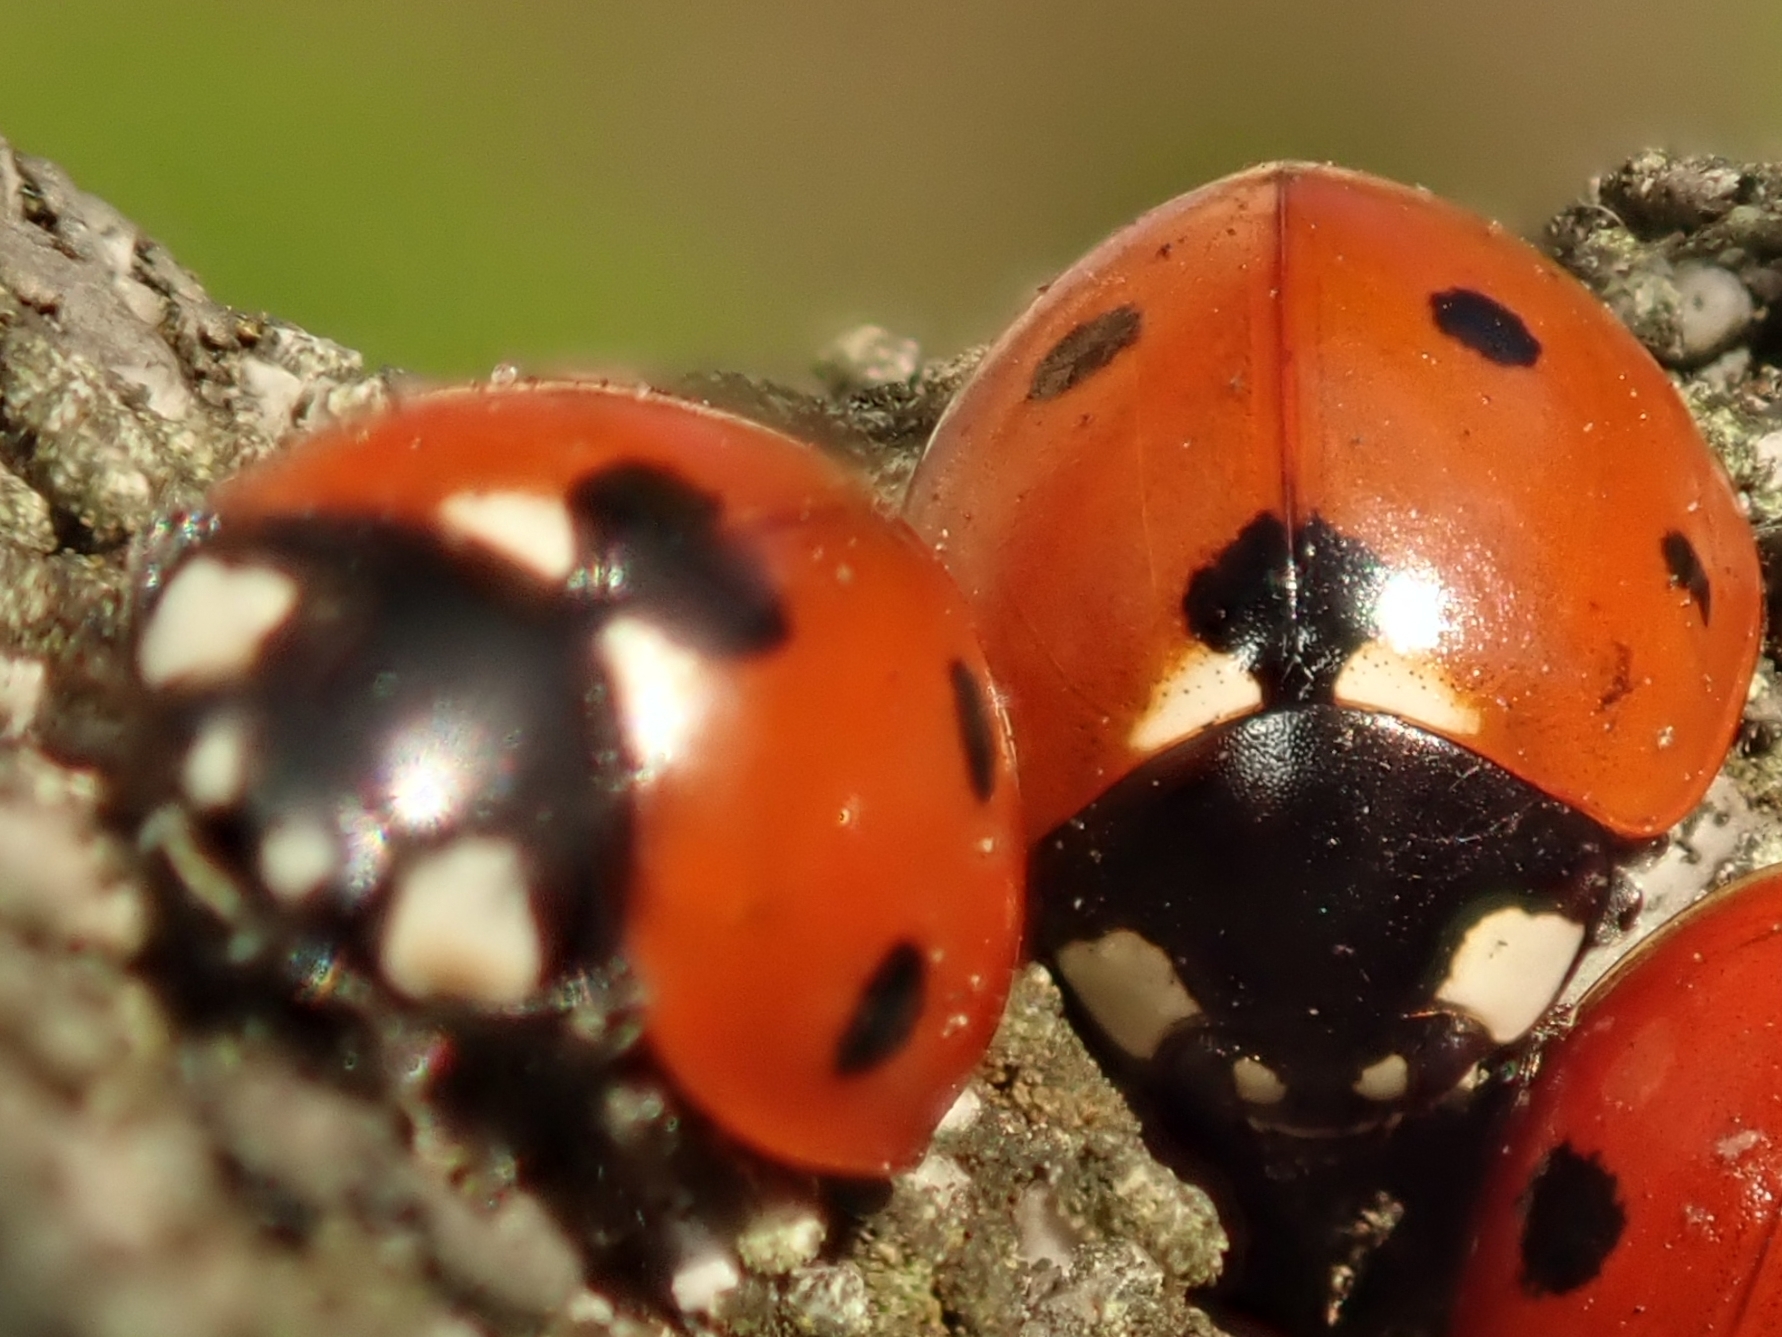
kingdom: Animalia
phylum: Arthropoda
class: Insecta
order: Coleoptera
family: Coccinellidae
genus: Coccinella
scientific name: Coccinella septempunctata
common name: Sevenspotted lady beetle
